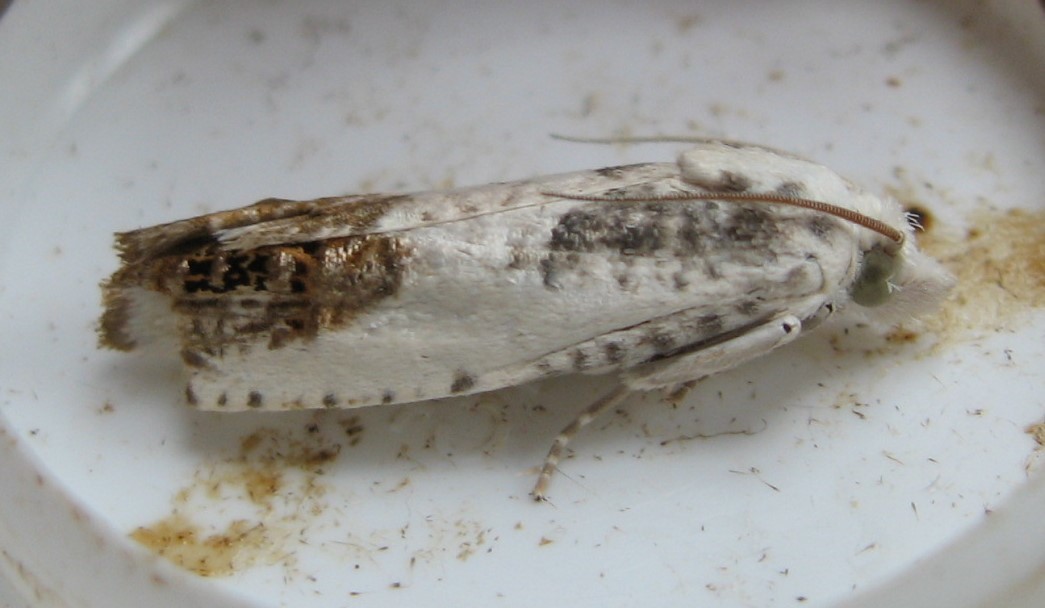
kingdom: Animalia
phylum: Arthropoda
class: Insecta
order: Lepidoptera
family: Tortricidae
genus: Eucosma
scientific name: Eucosma giganteana
